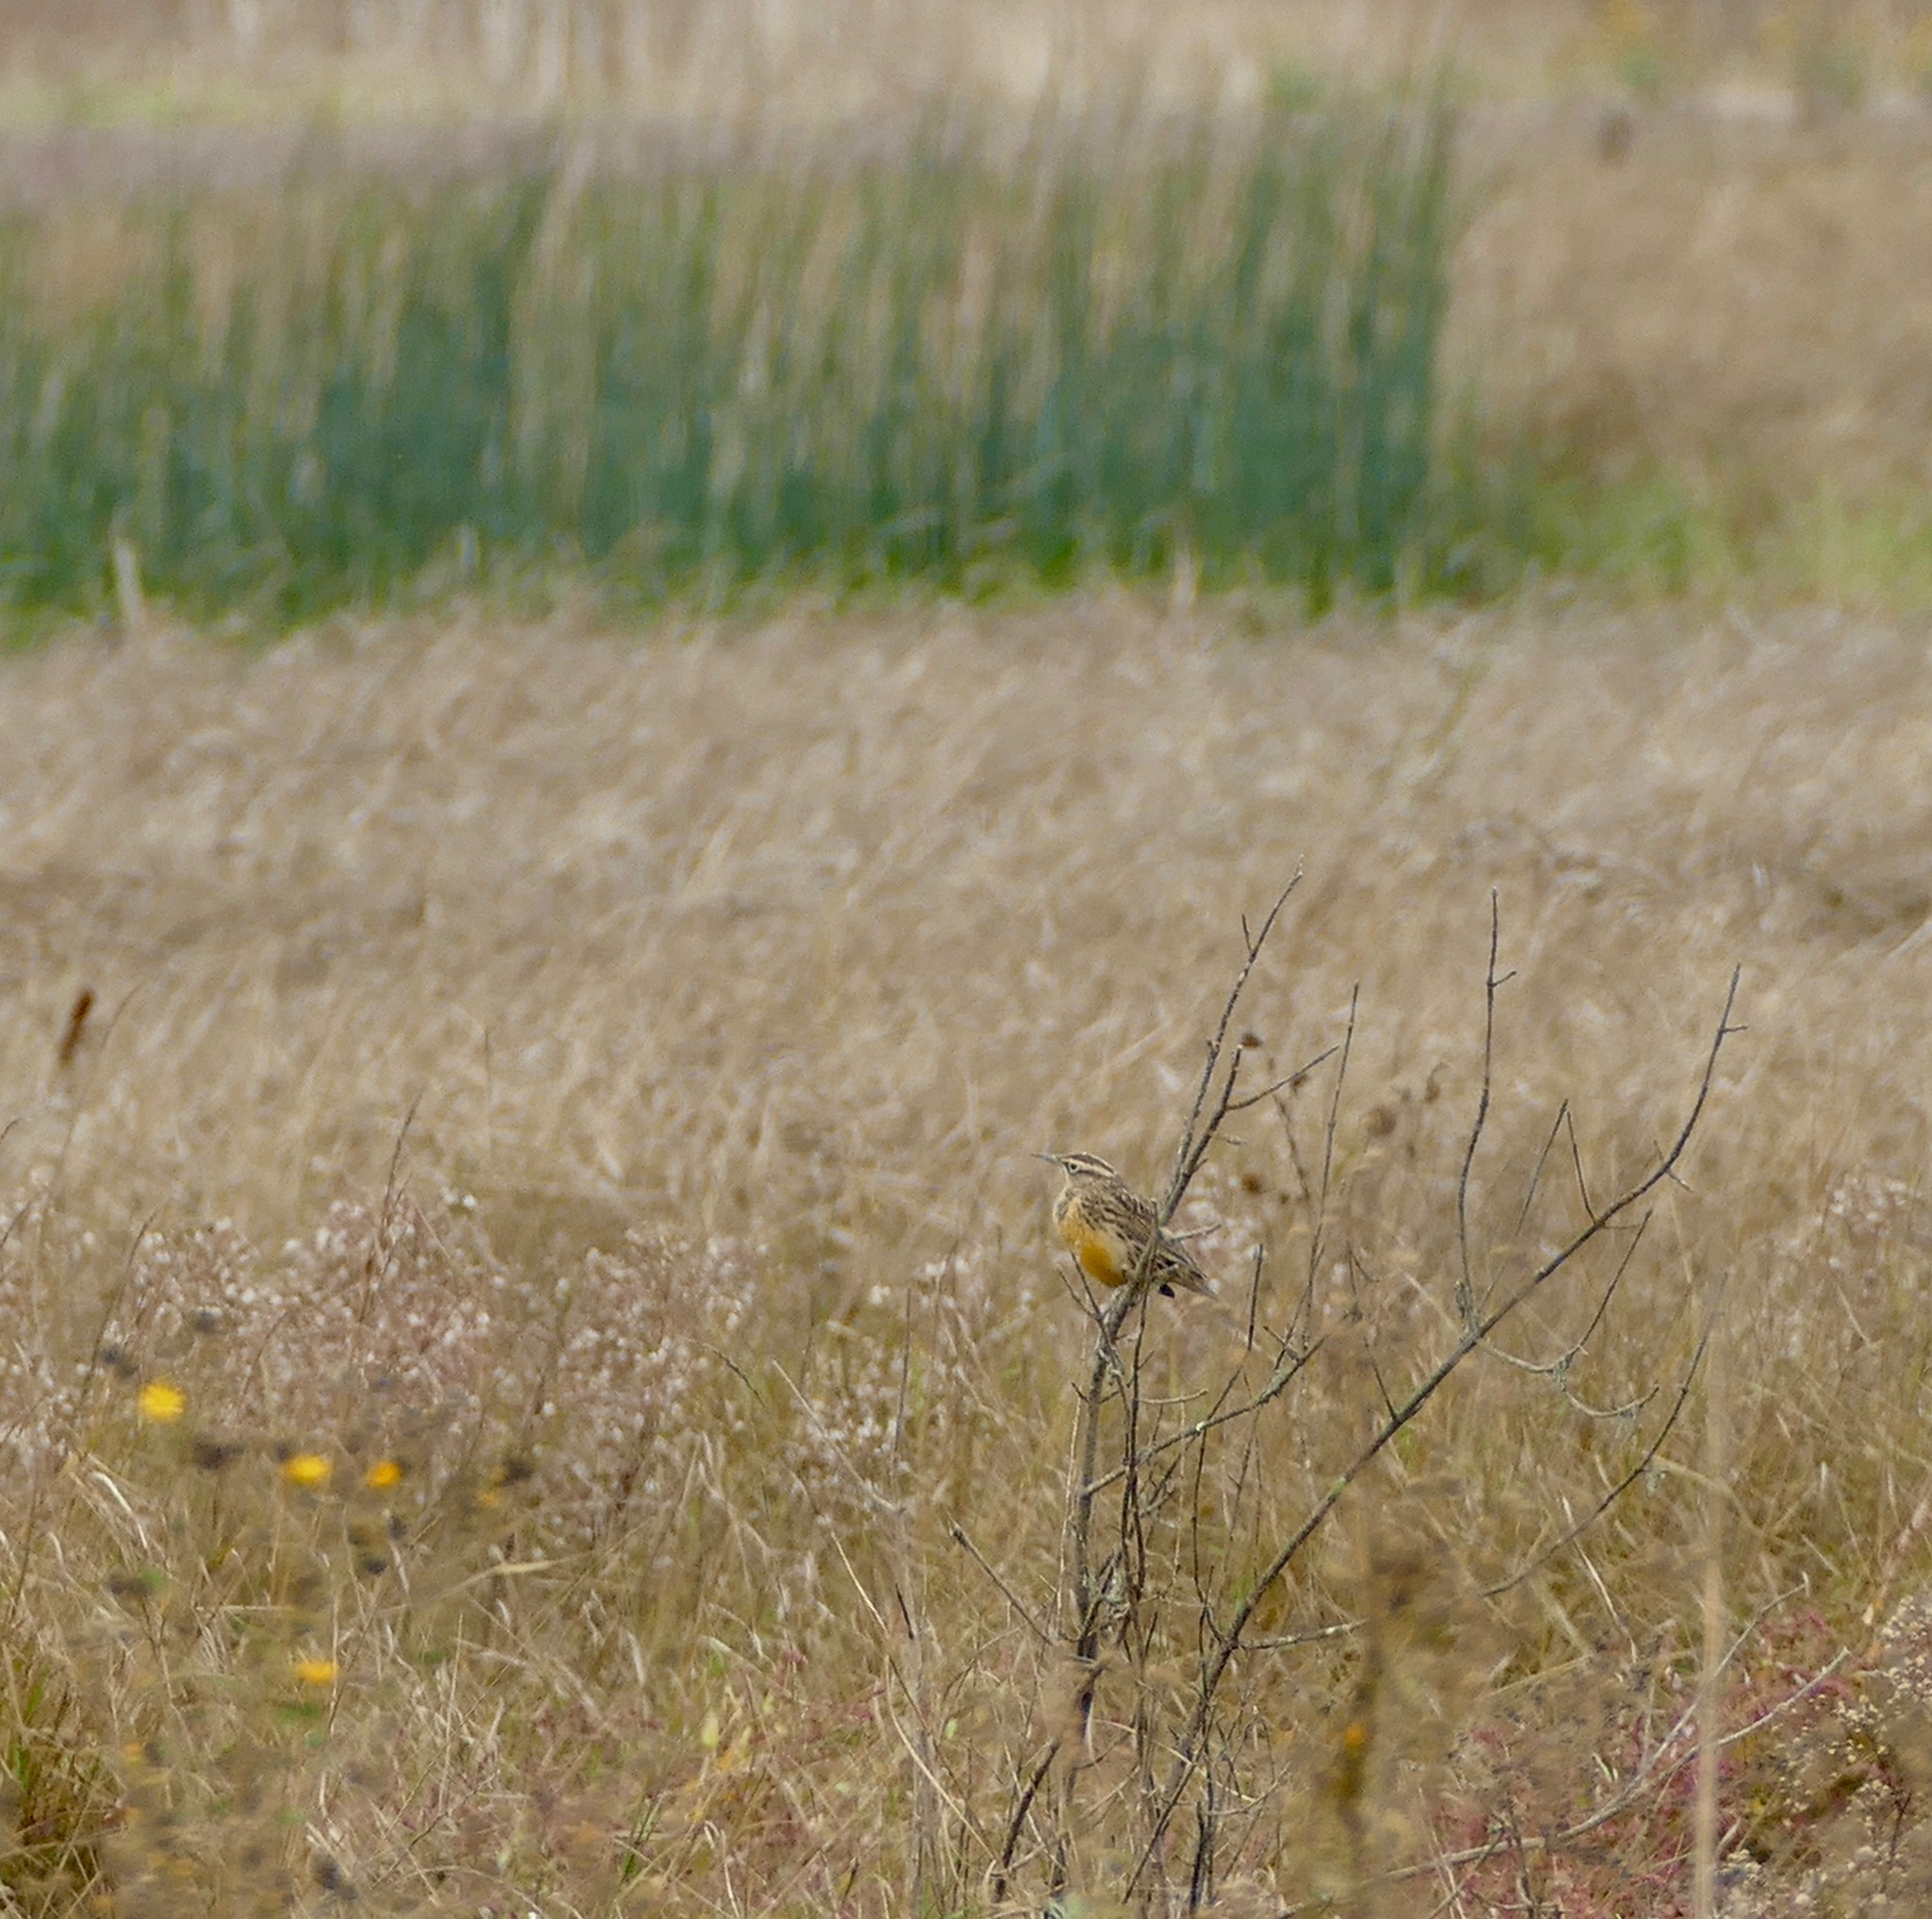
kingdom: Animalia
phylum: Chordata
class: Aves
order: Passeriformes
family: Icteridae
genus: Sturnella
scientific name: Sturnella neglecta
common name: Western meadowlark
